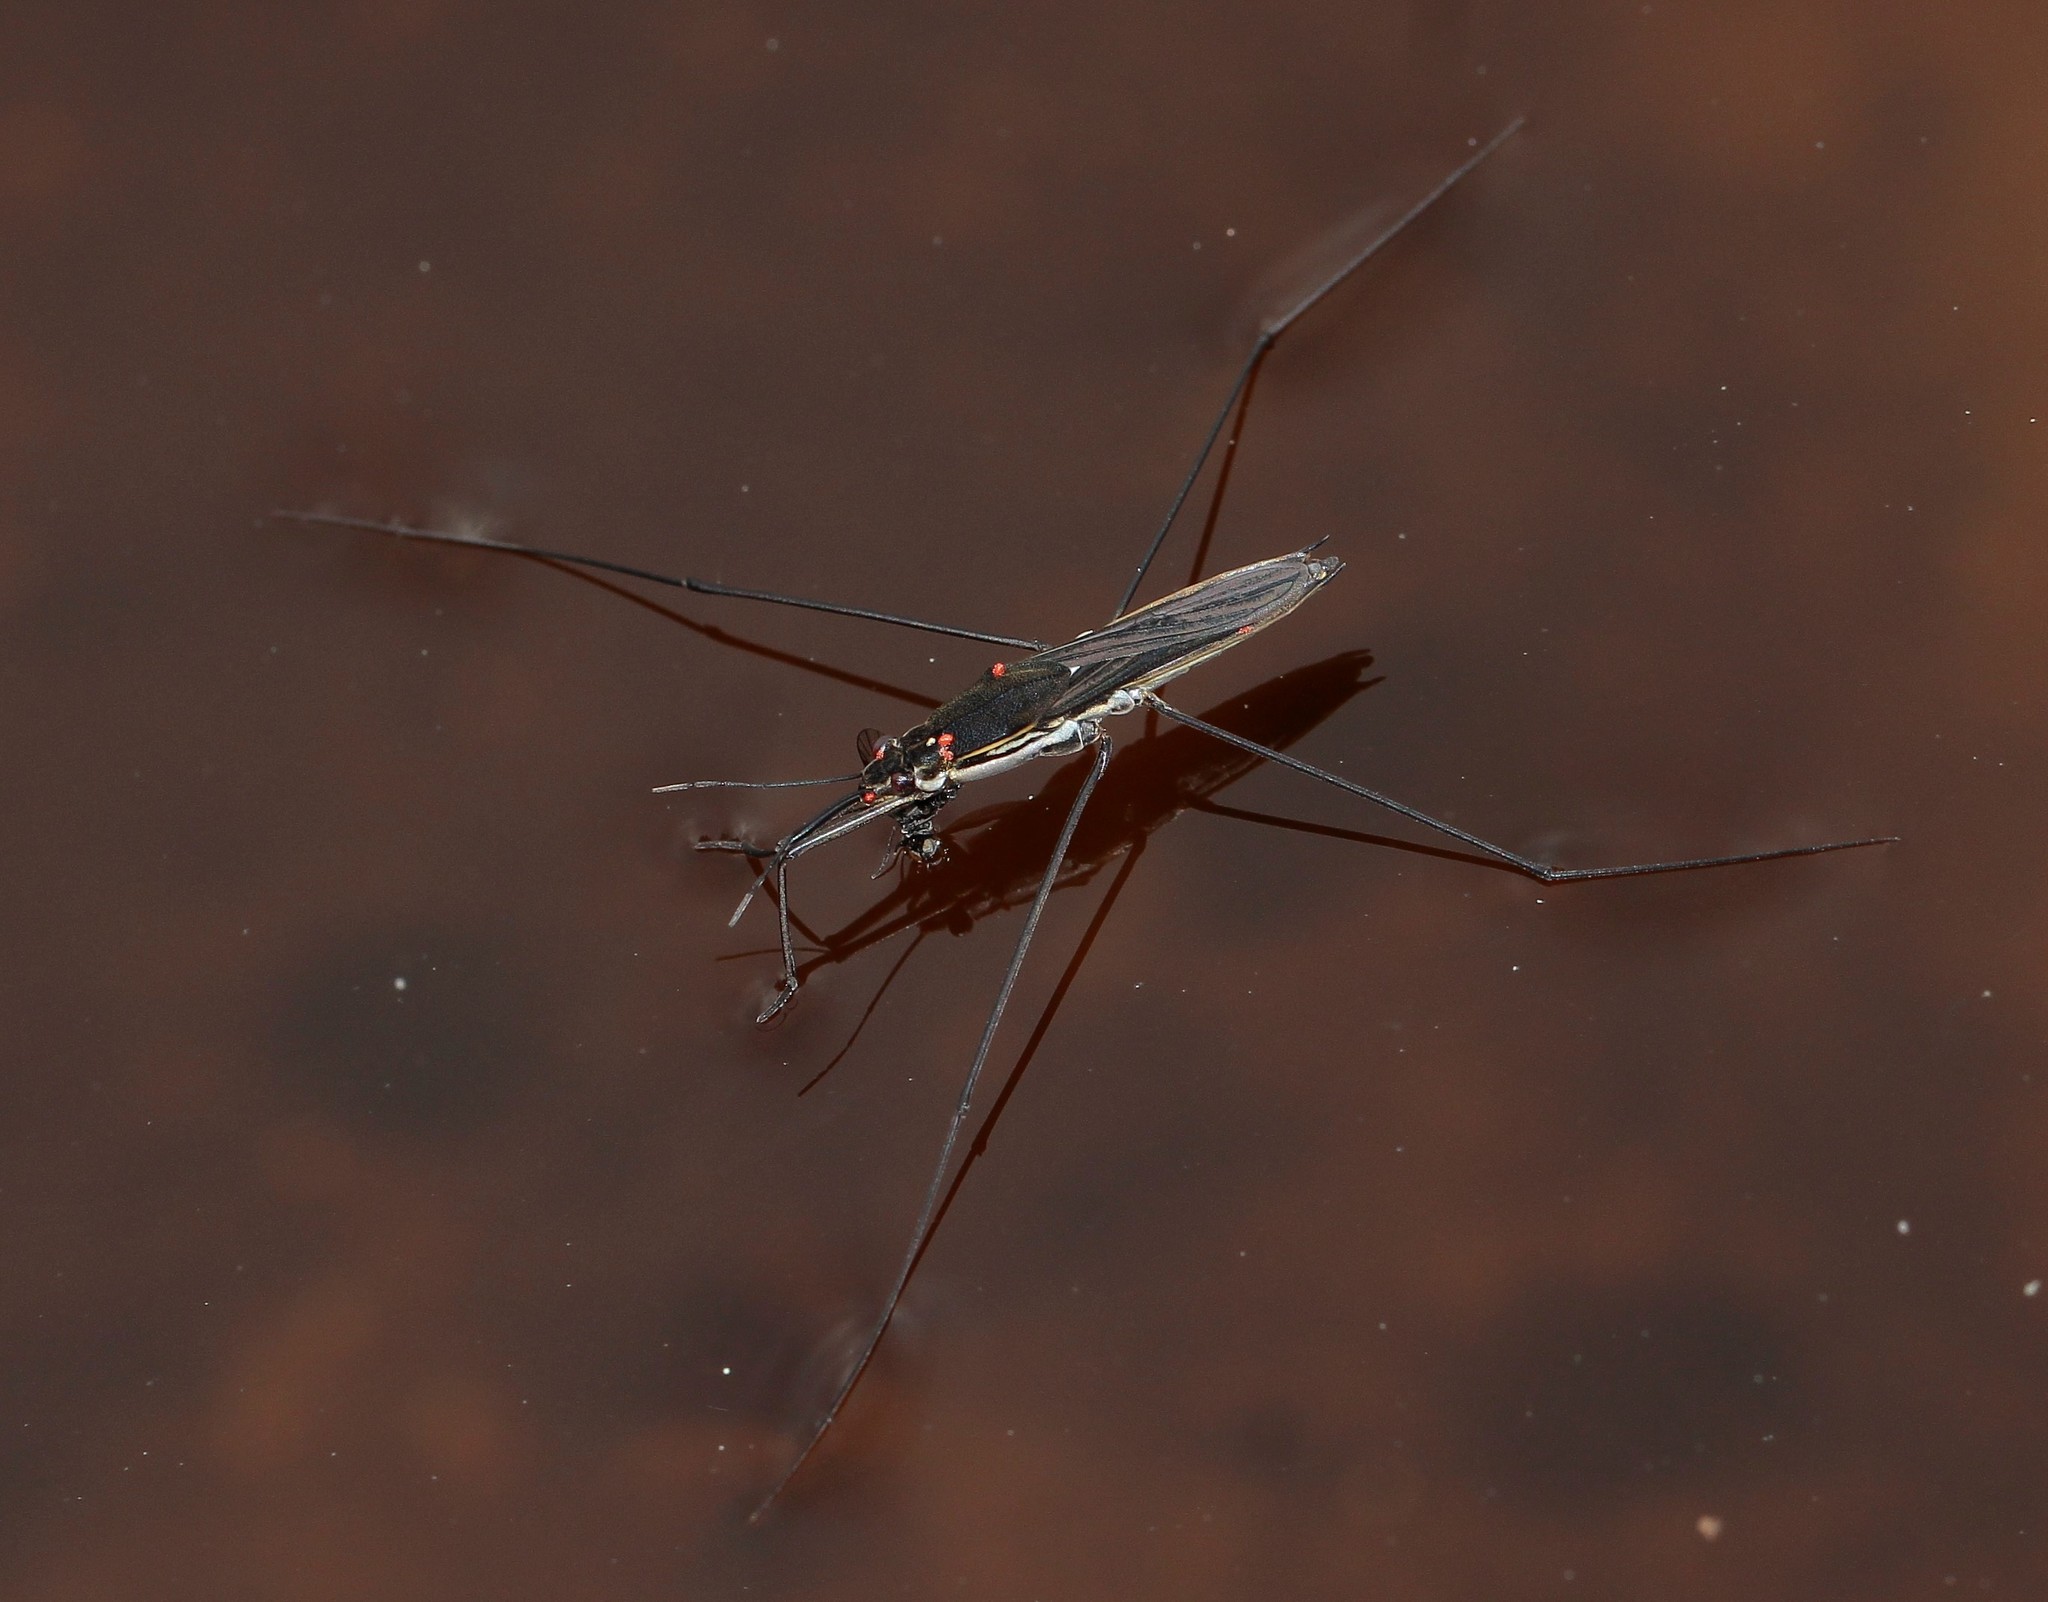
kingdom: Animalia
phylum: Arthropoda
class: Insecta
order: Hemiptera
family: Gerridae
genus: Aquarius
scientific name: Aquarius paludum
